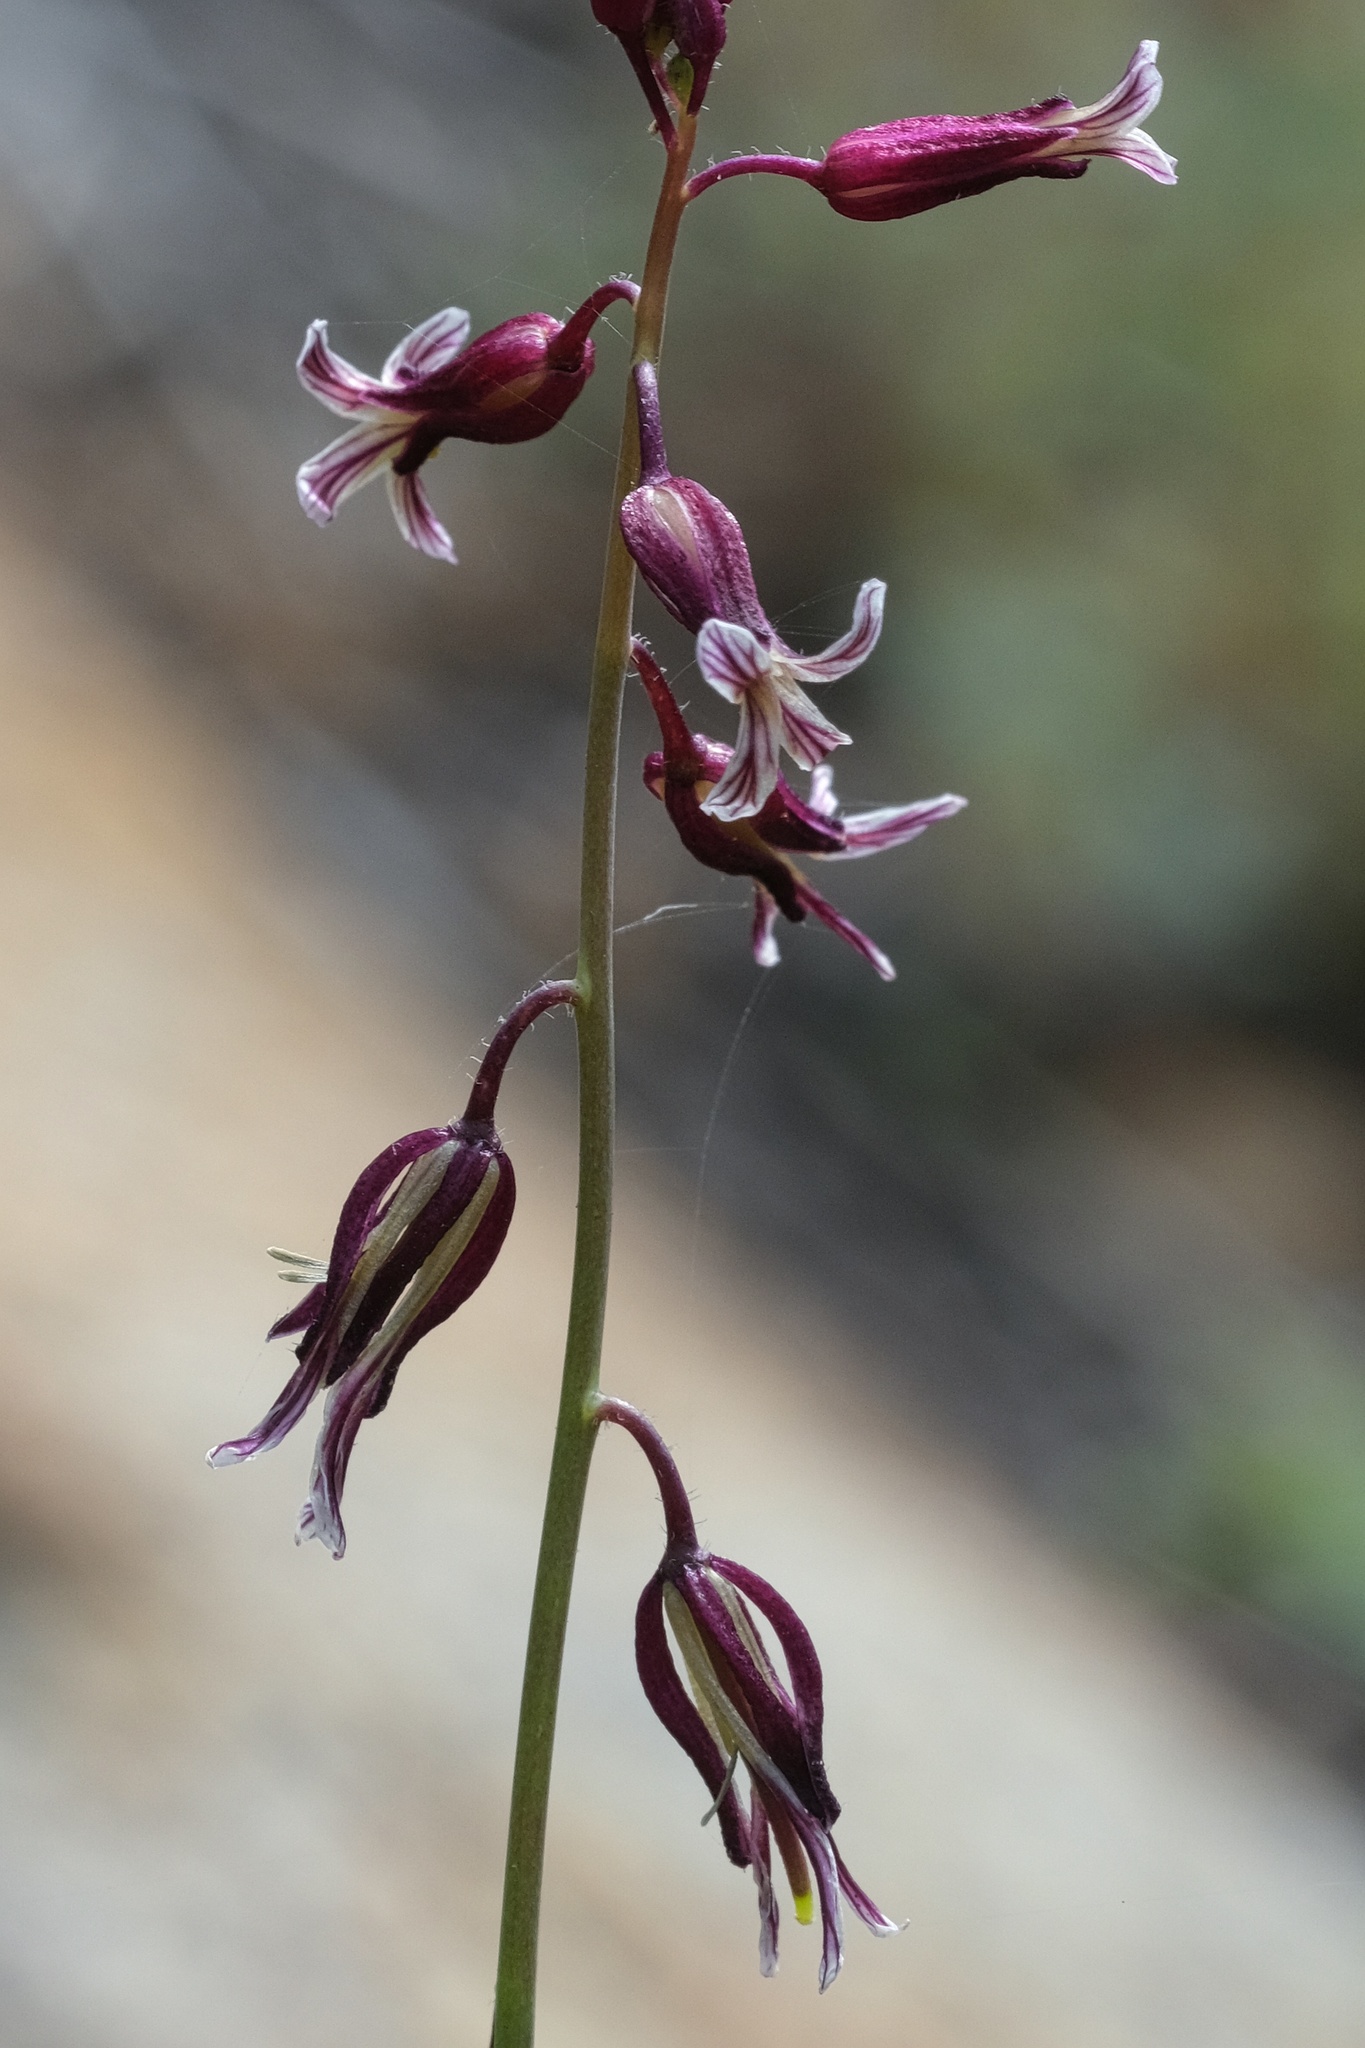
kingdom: Plantae
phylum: Tracheophyta
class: Magnoliopsida
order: Brassicales
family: Brassicaceae
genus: Streptanthus
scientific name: Streptanthus heterophyllus
